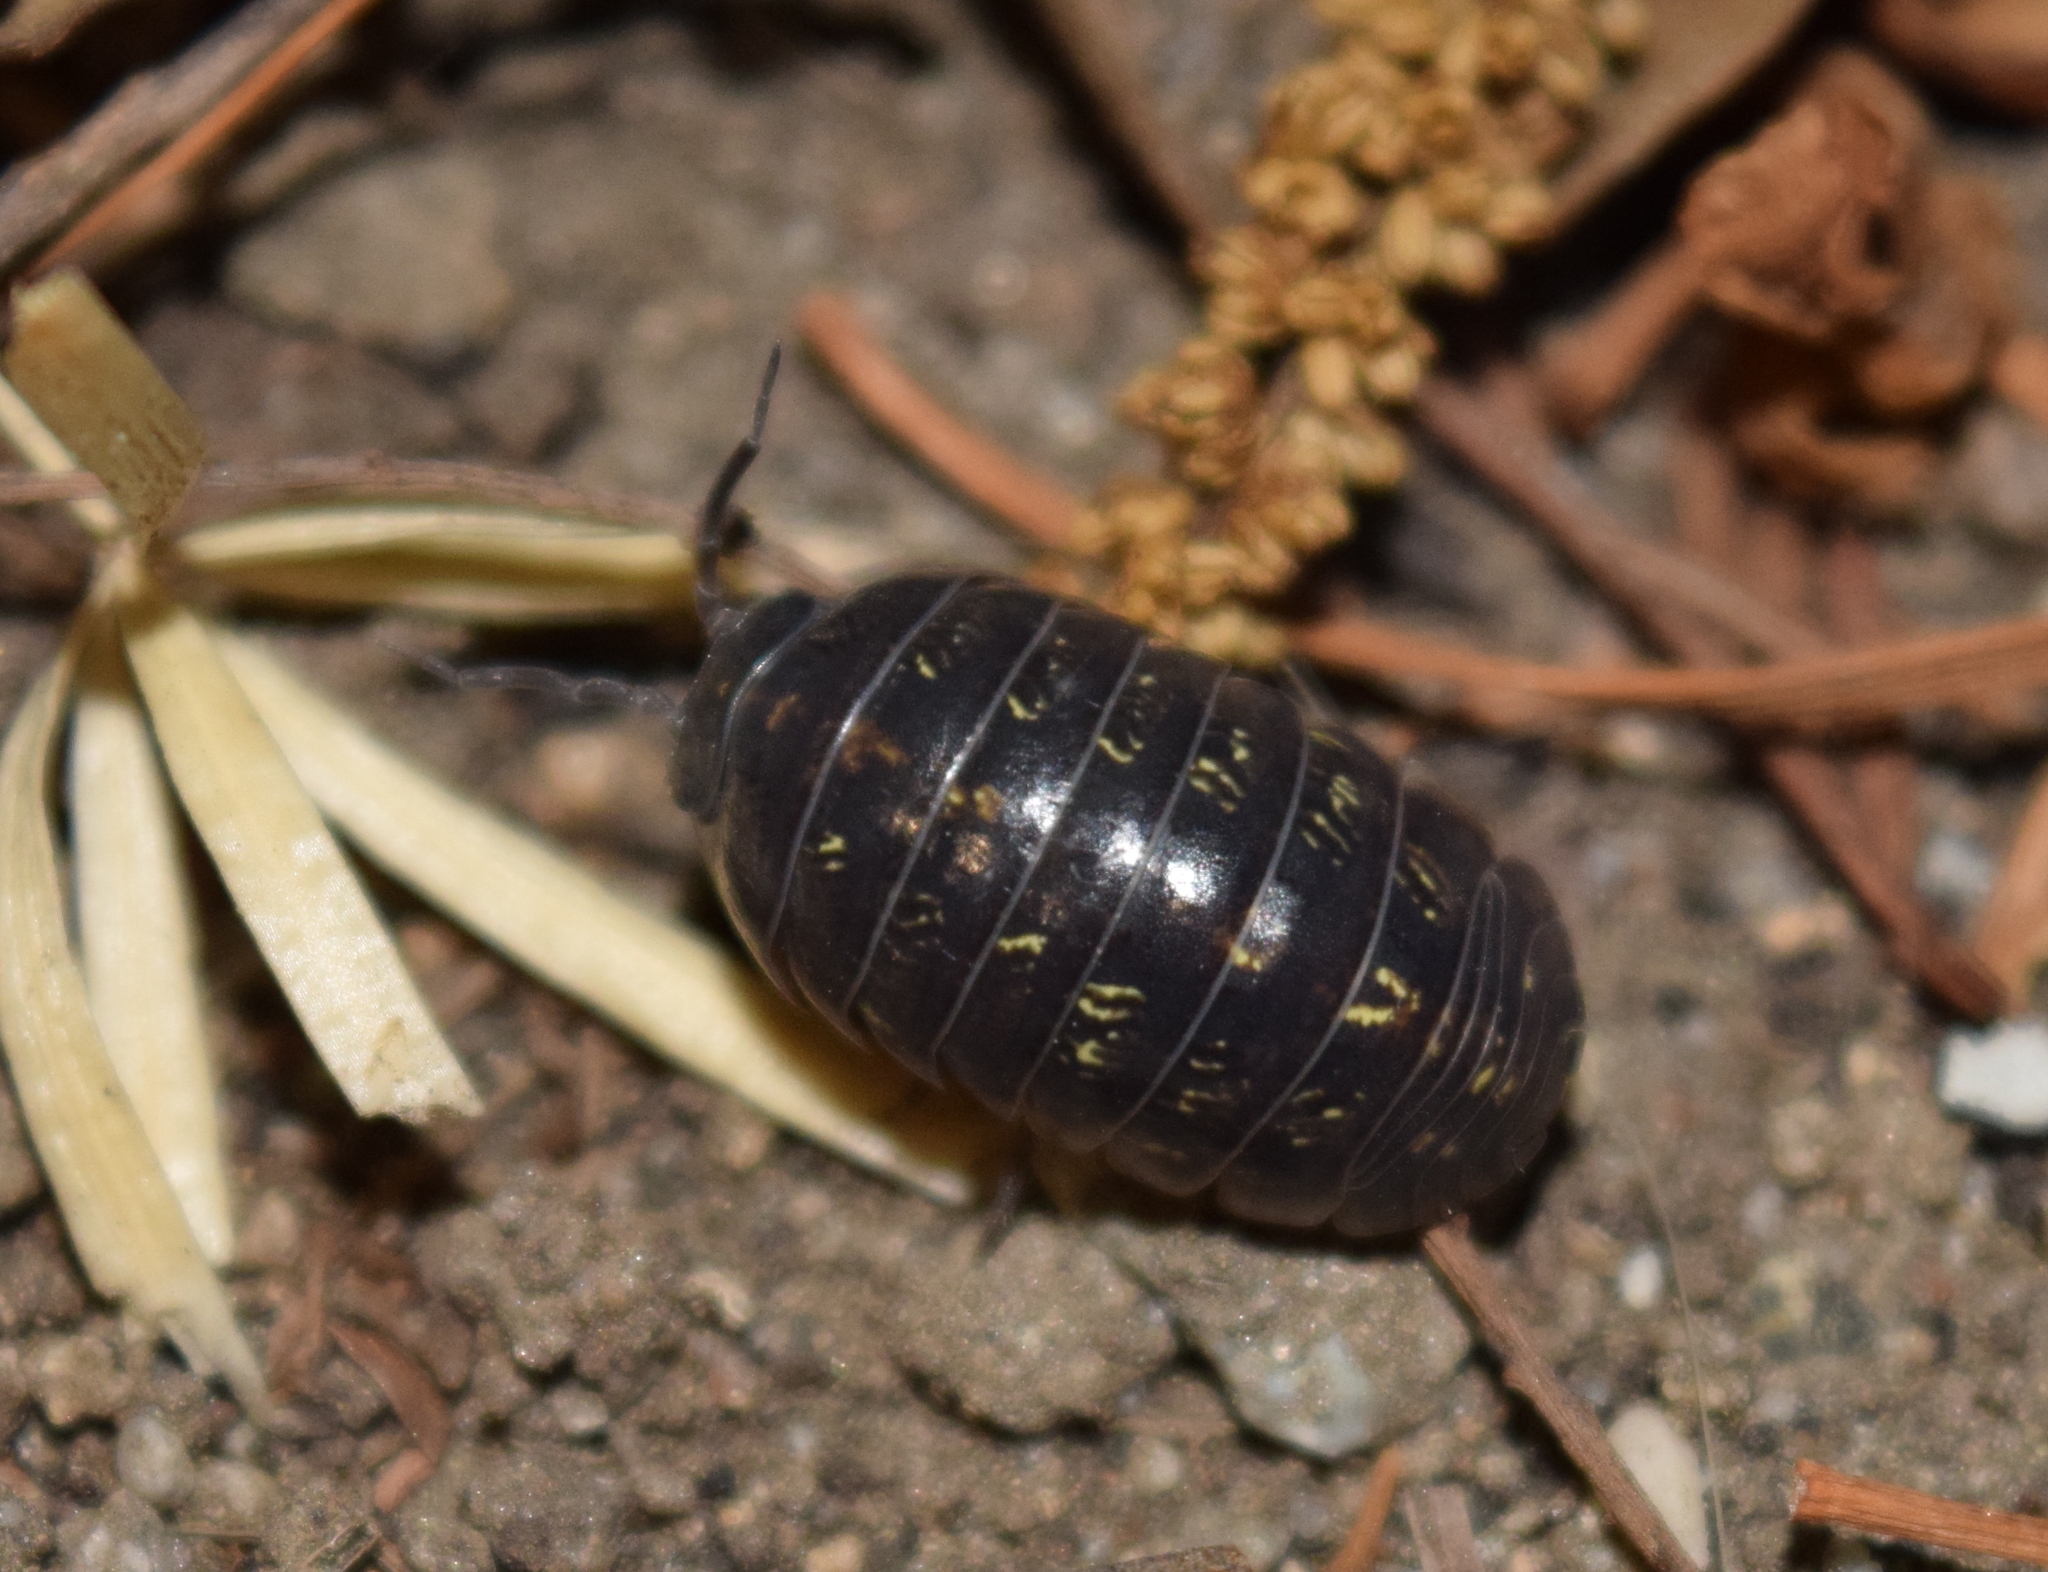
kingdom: Animalia
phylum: Arthropoda
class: Malacostraca
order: Isopoda
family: Armadillidiidae
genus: Armadillidium
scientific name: Armadillidium vulgare
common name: Common pill woodlouse
